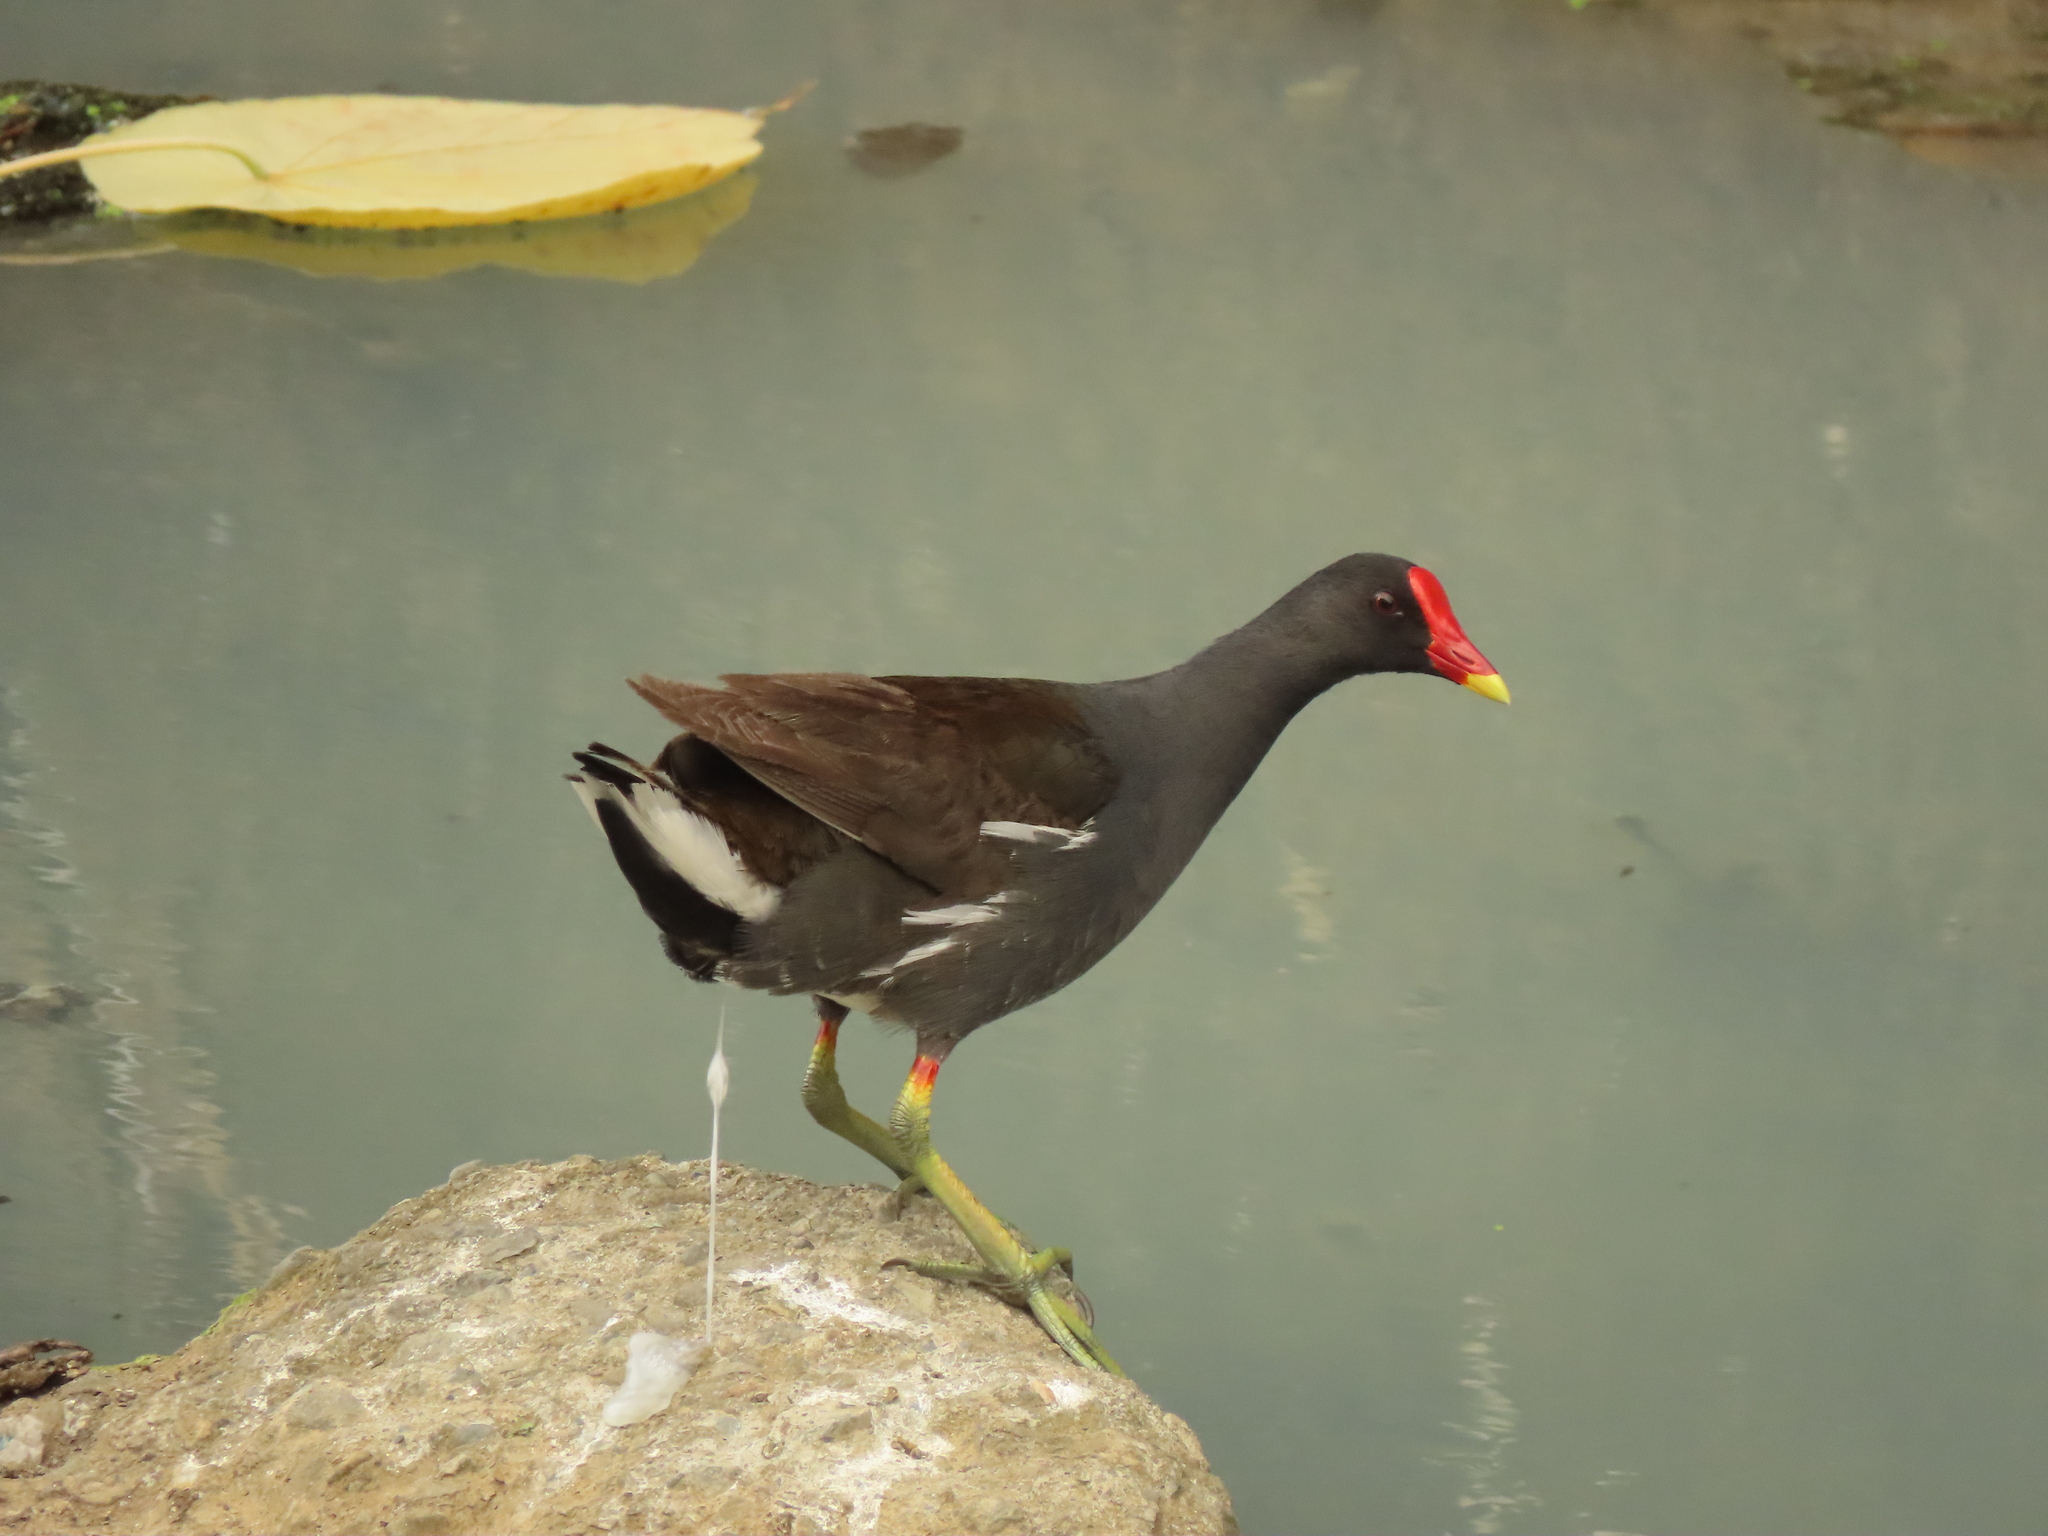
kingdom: Animalia
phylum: Chordata
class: Aves
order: Gruiformes
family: Rallidae
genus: Gallinula
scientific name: Gallinula chloropus
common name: Common moorhen
